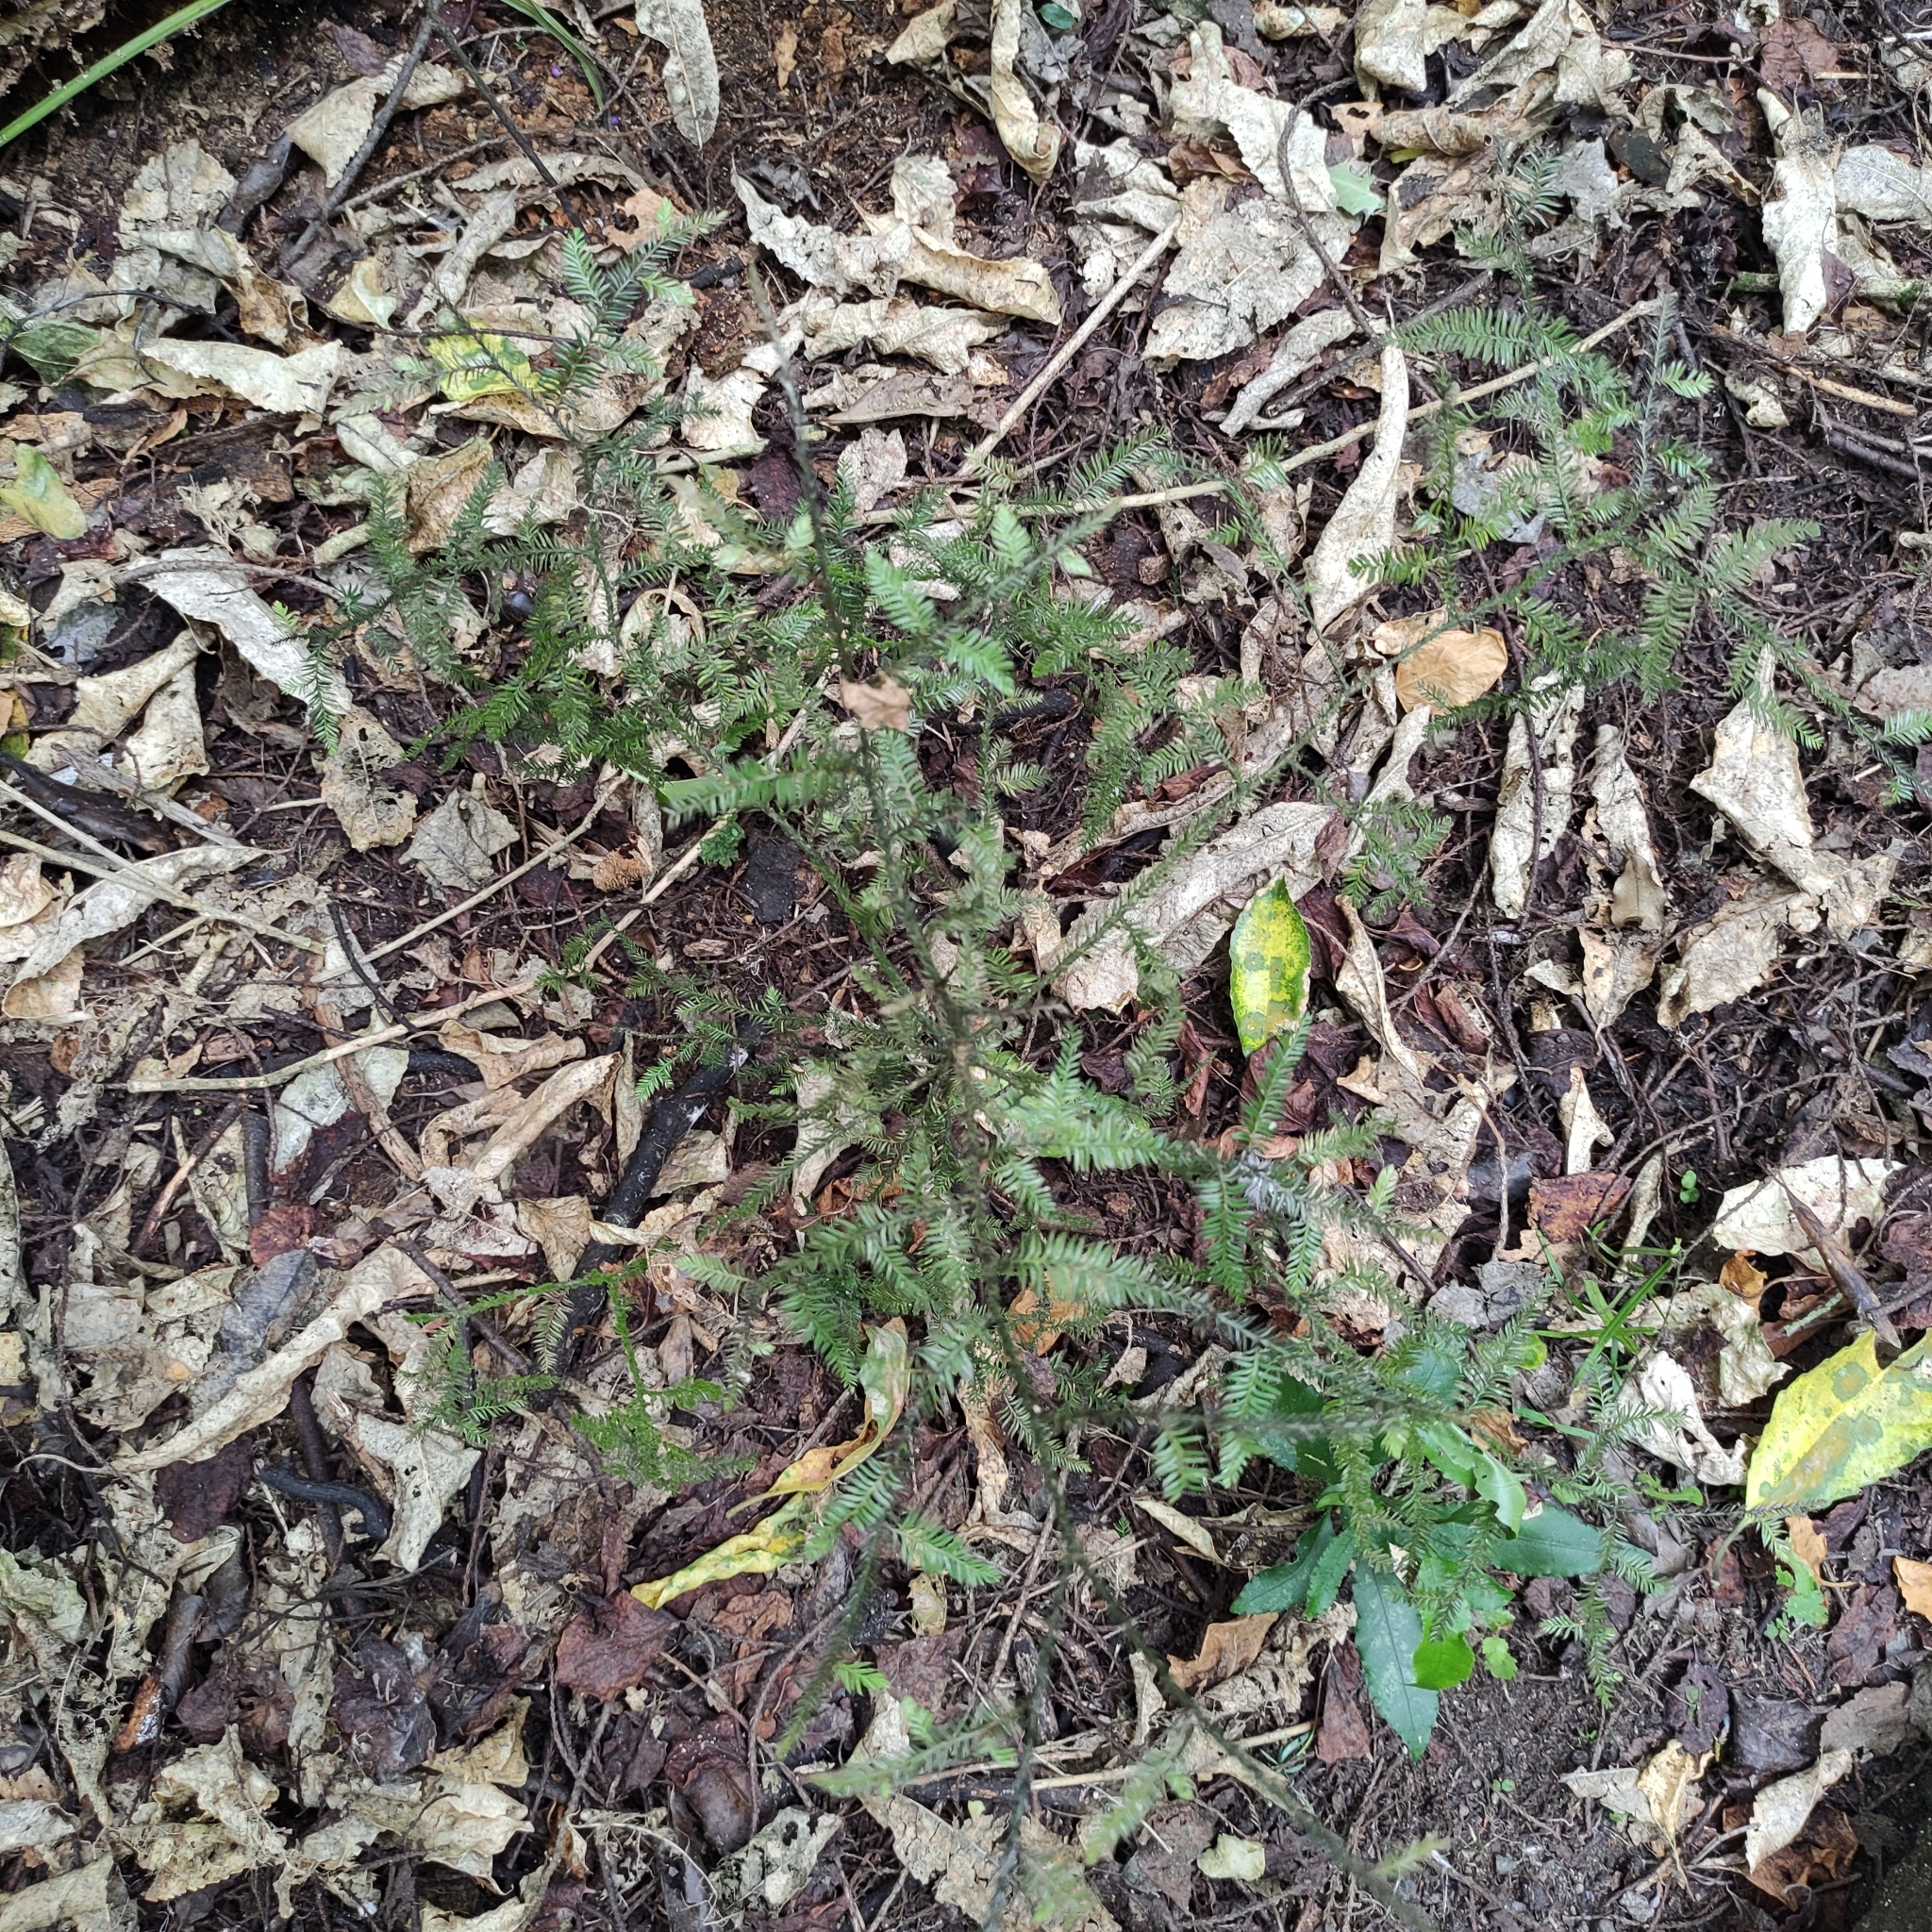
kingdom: Plantae
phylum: Tracheophyta
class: Pinopsida
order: Pinales
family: Podocarpaceae
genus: Dacrycarpus
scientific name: Dacrycarpus dacrydioides
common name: White pine
